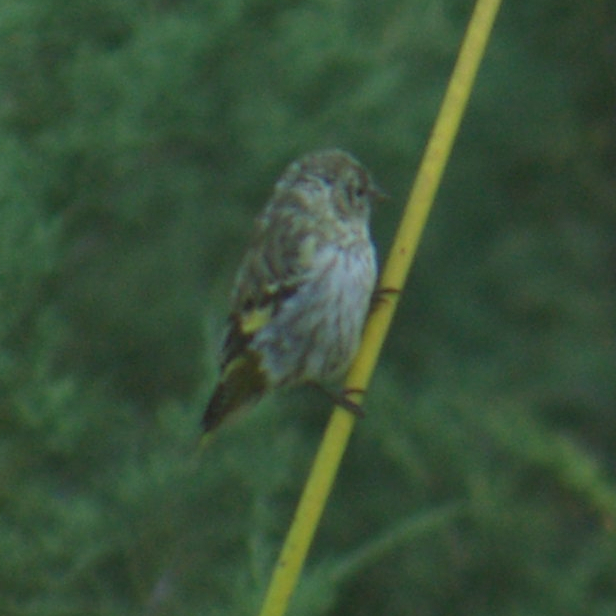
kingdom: Animalia
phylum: Chordata
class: Aves
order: Passeriformes
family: Fringillidae
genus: Spinus
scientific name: Spinus pinus
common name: Pine siskin
